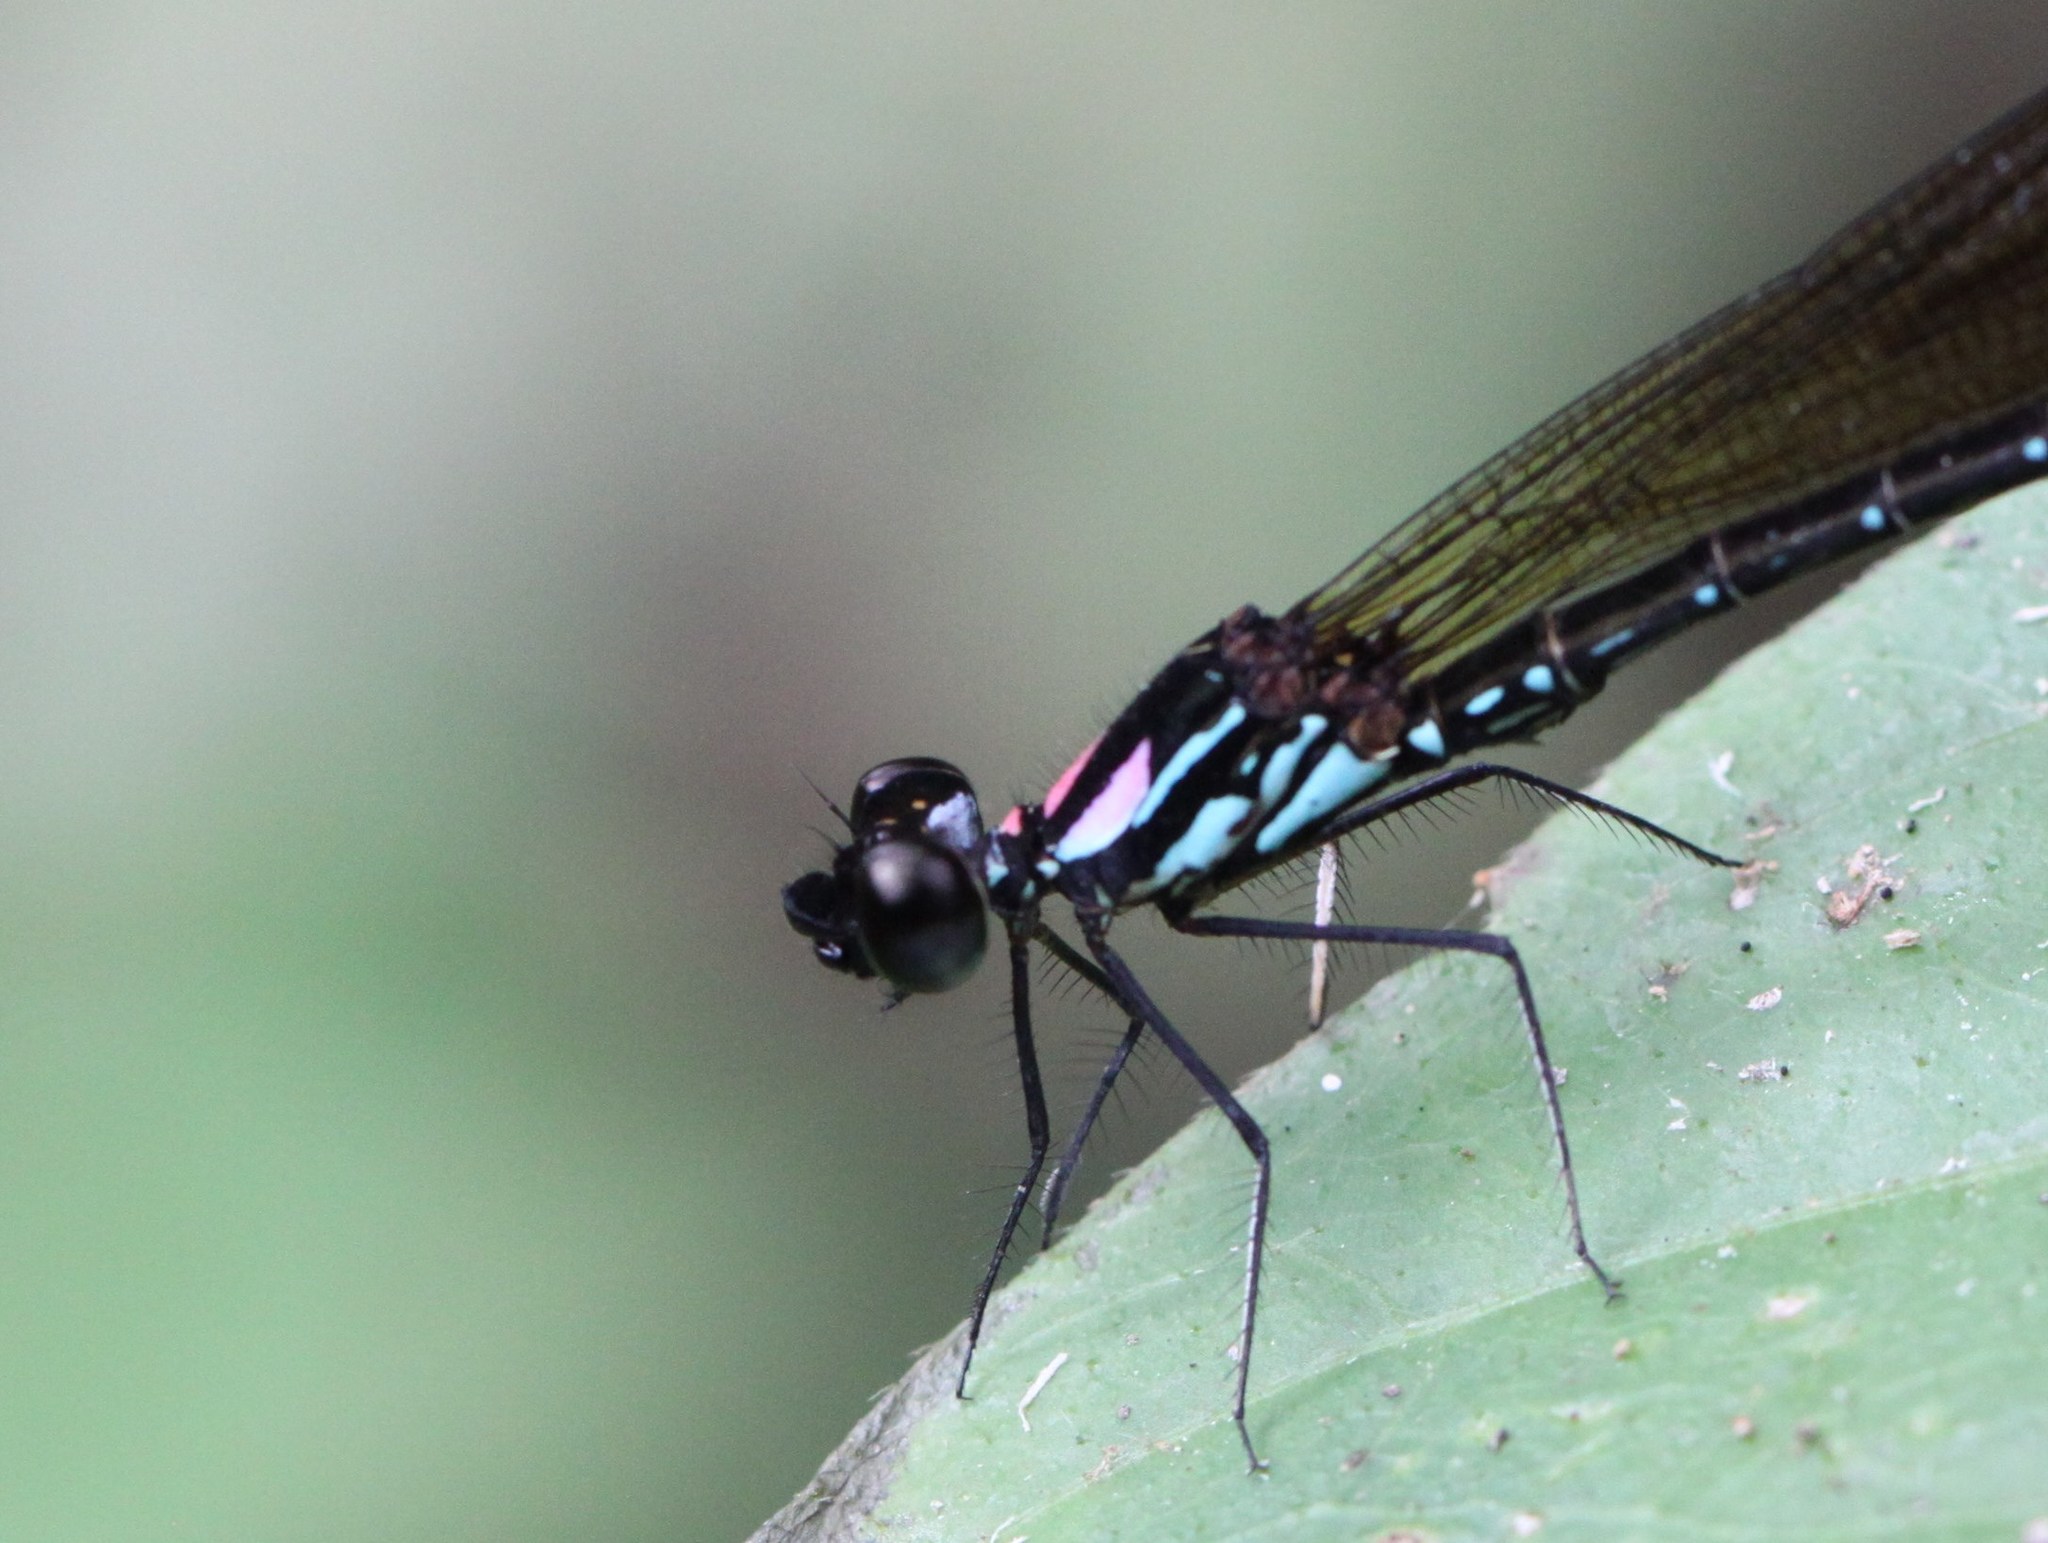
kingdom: Animalia
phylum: Arthropoda
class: Insecta
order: Odonata
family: Chlorocyphidae
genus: Heliocypha
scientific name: Heliocypha biforata
